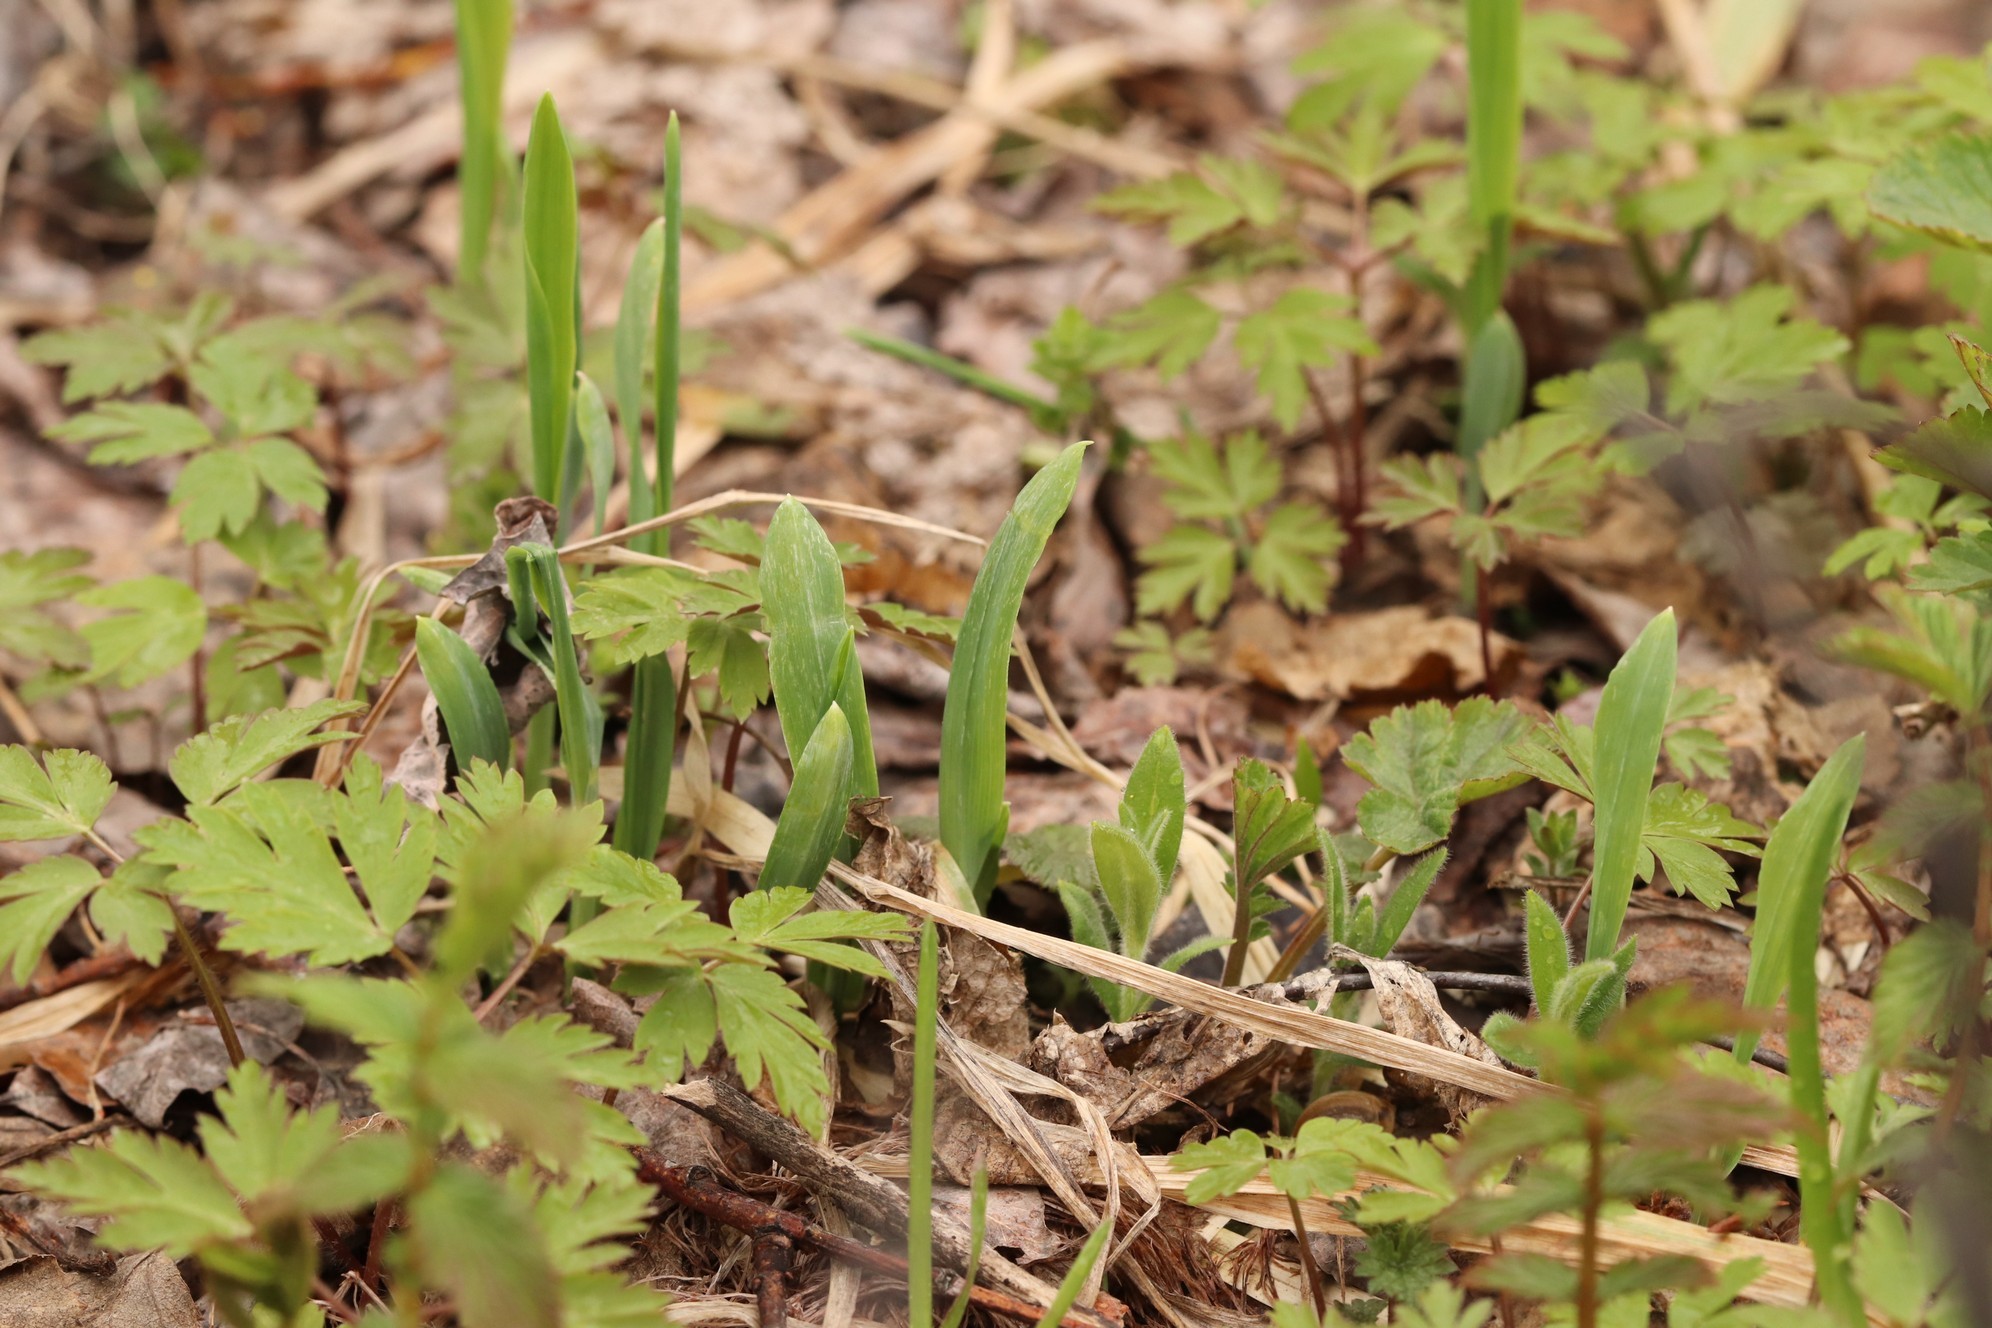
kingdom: Plantae
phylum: Tracheophyta
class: Liliopsida
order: Poales
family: Poaceae
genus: Milium
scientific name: Milium effusum
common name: Wood millet
